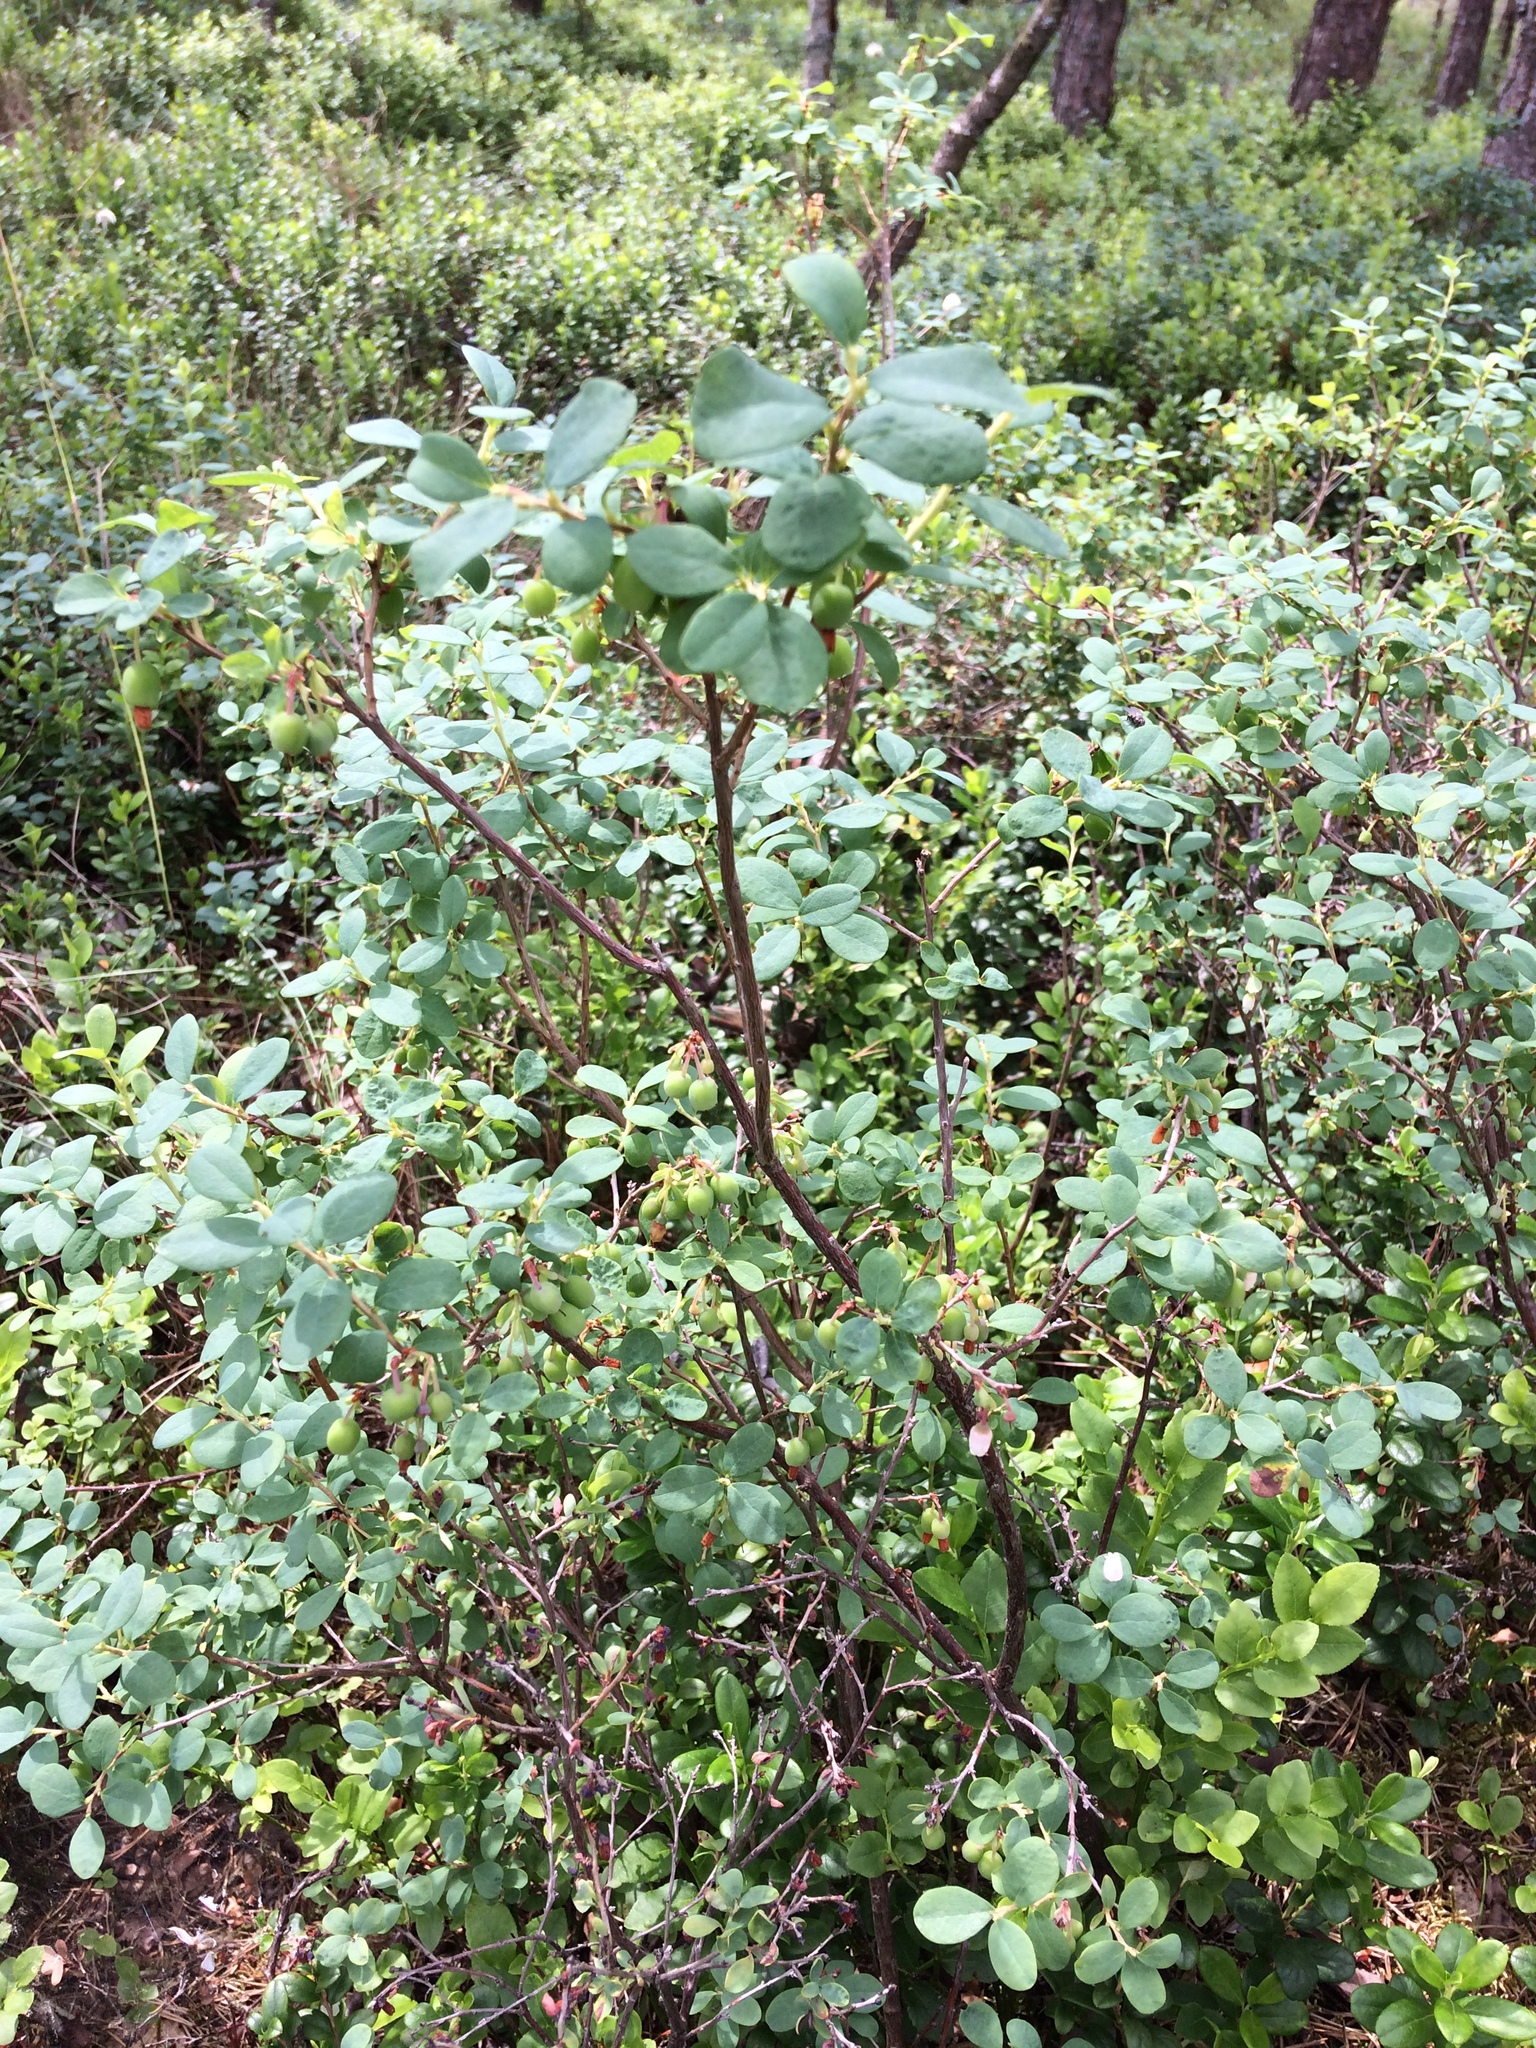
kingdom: Plantae
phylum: Tracheophyta
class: Magnoliopsida
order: Ericales
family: Ericaceae
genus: Vaccinium
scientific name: Vaccinium uliginosum
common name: Bog bilberry
